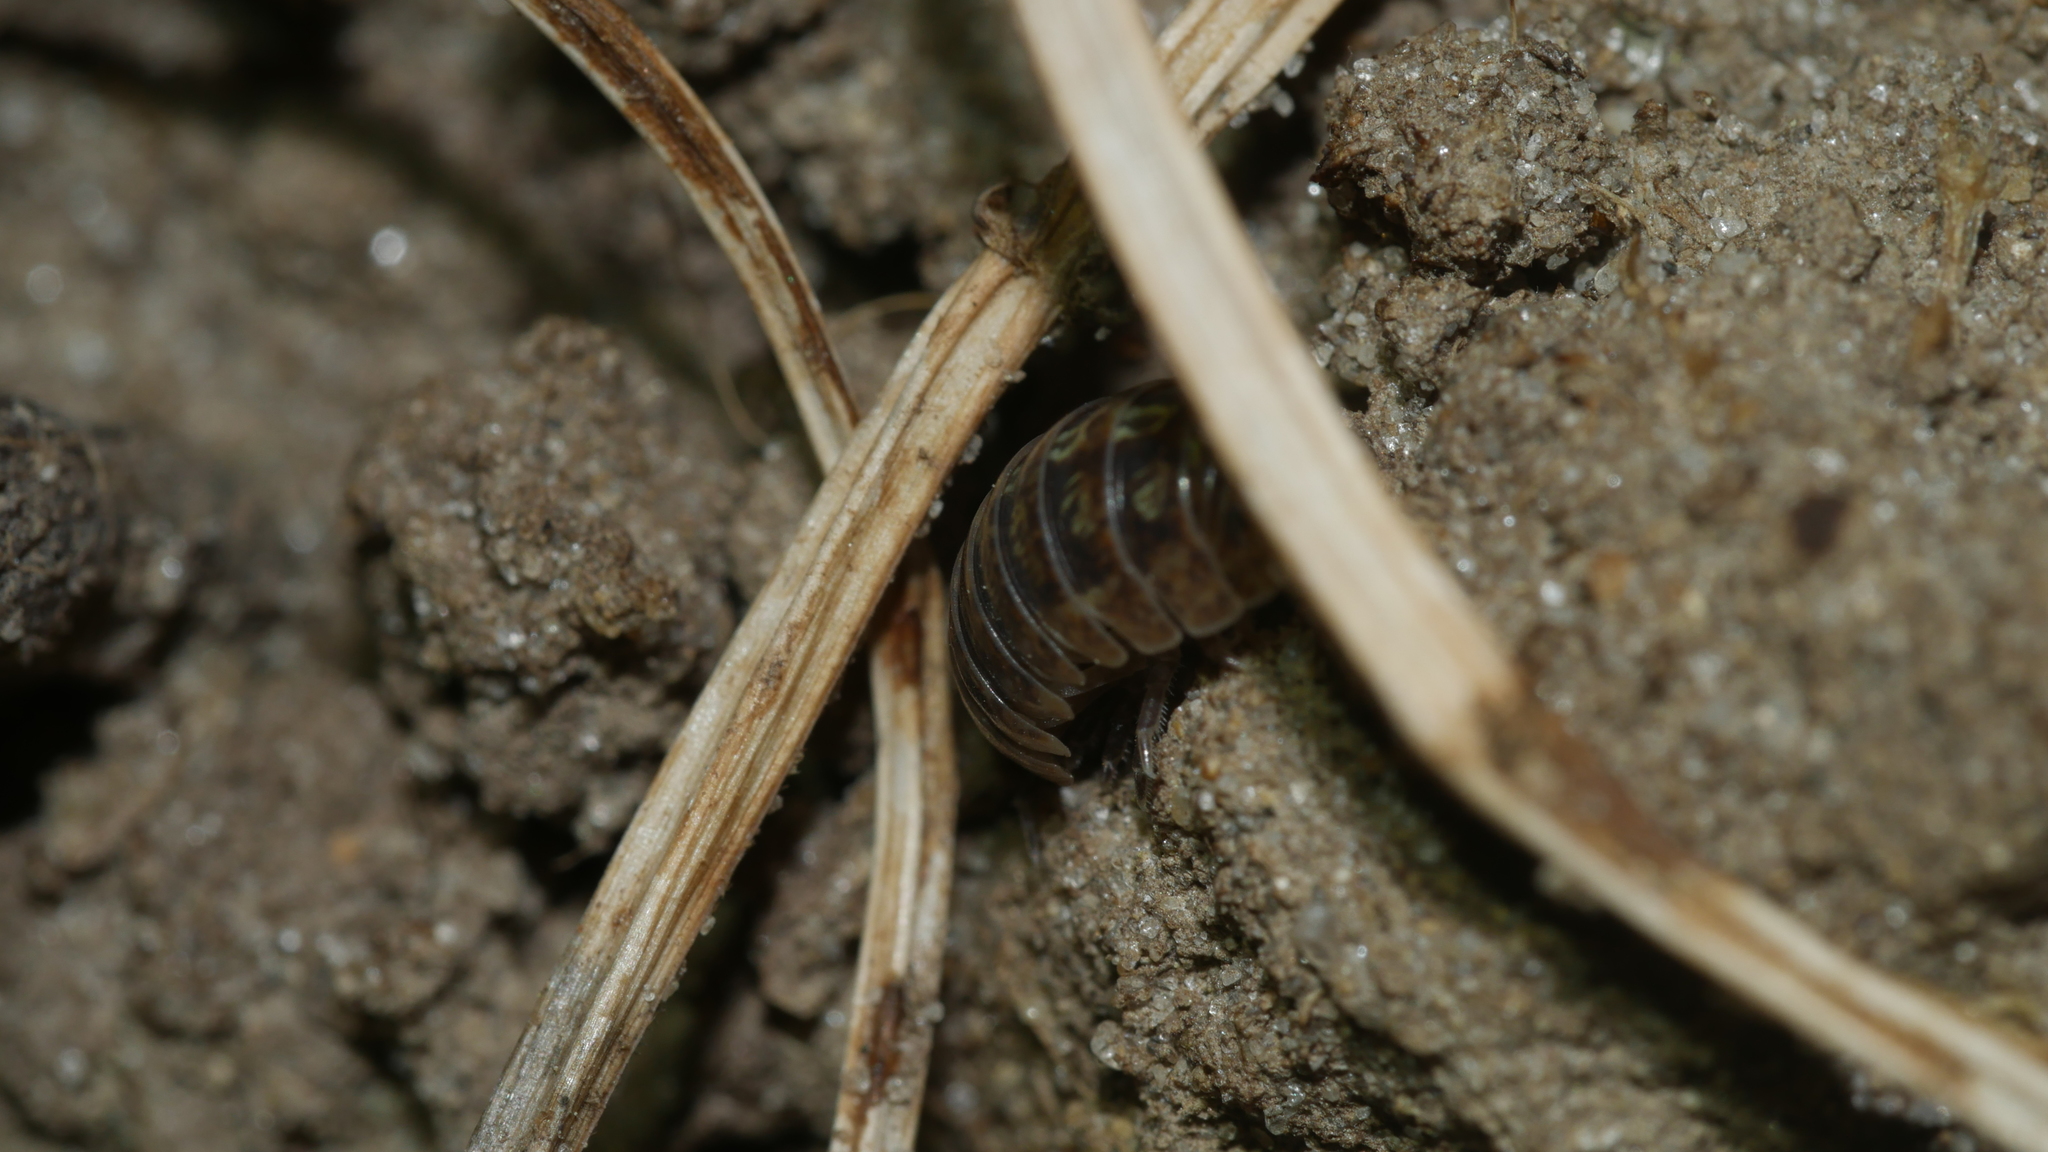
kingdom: Animalia
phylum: Arthropoda
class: Malacostraca
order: Isopoda
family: Armadillidiidae
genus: Armadillidium
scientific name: Armadillidium vulgare
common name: Common pill woodlouse
